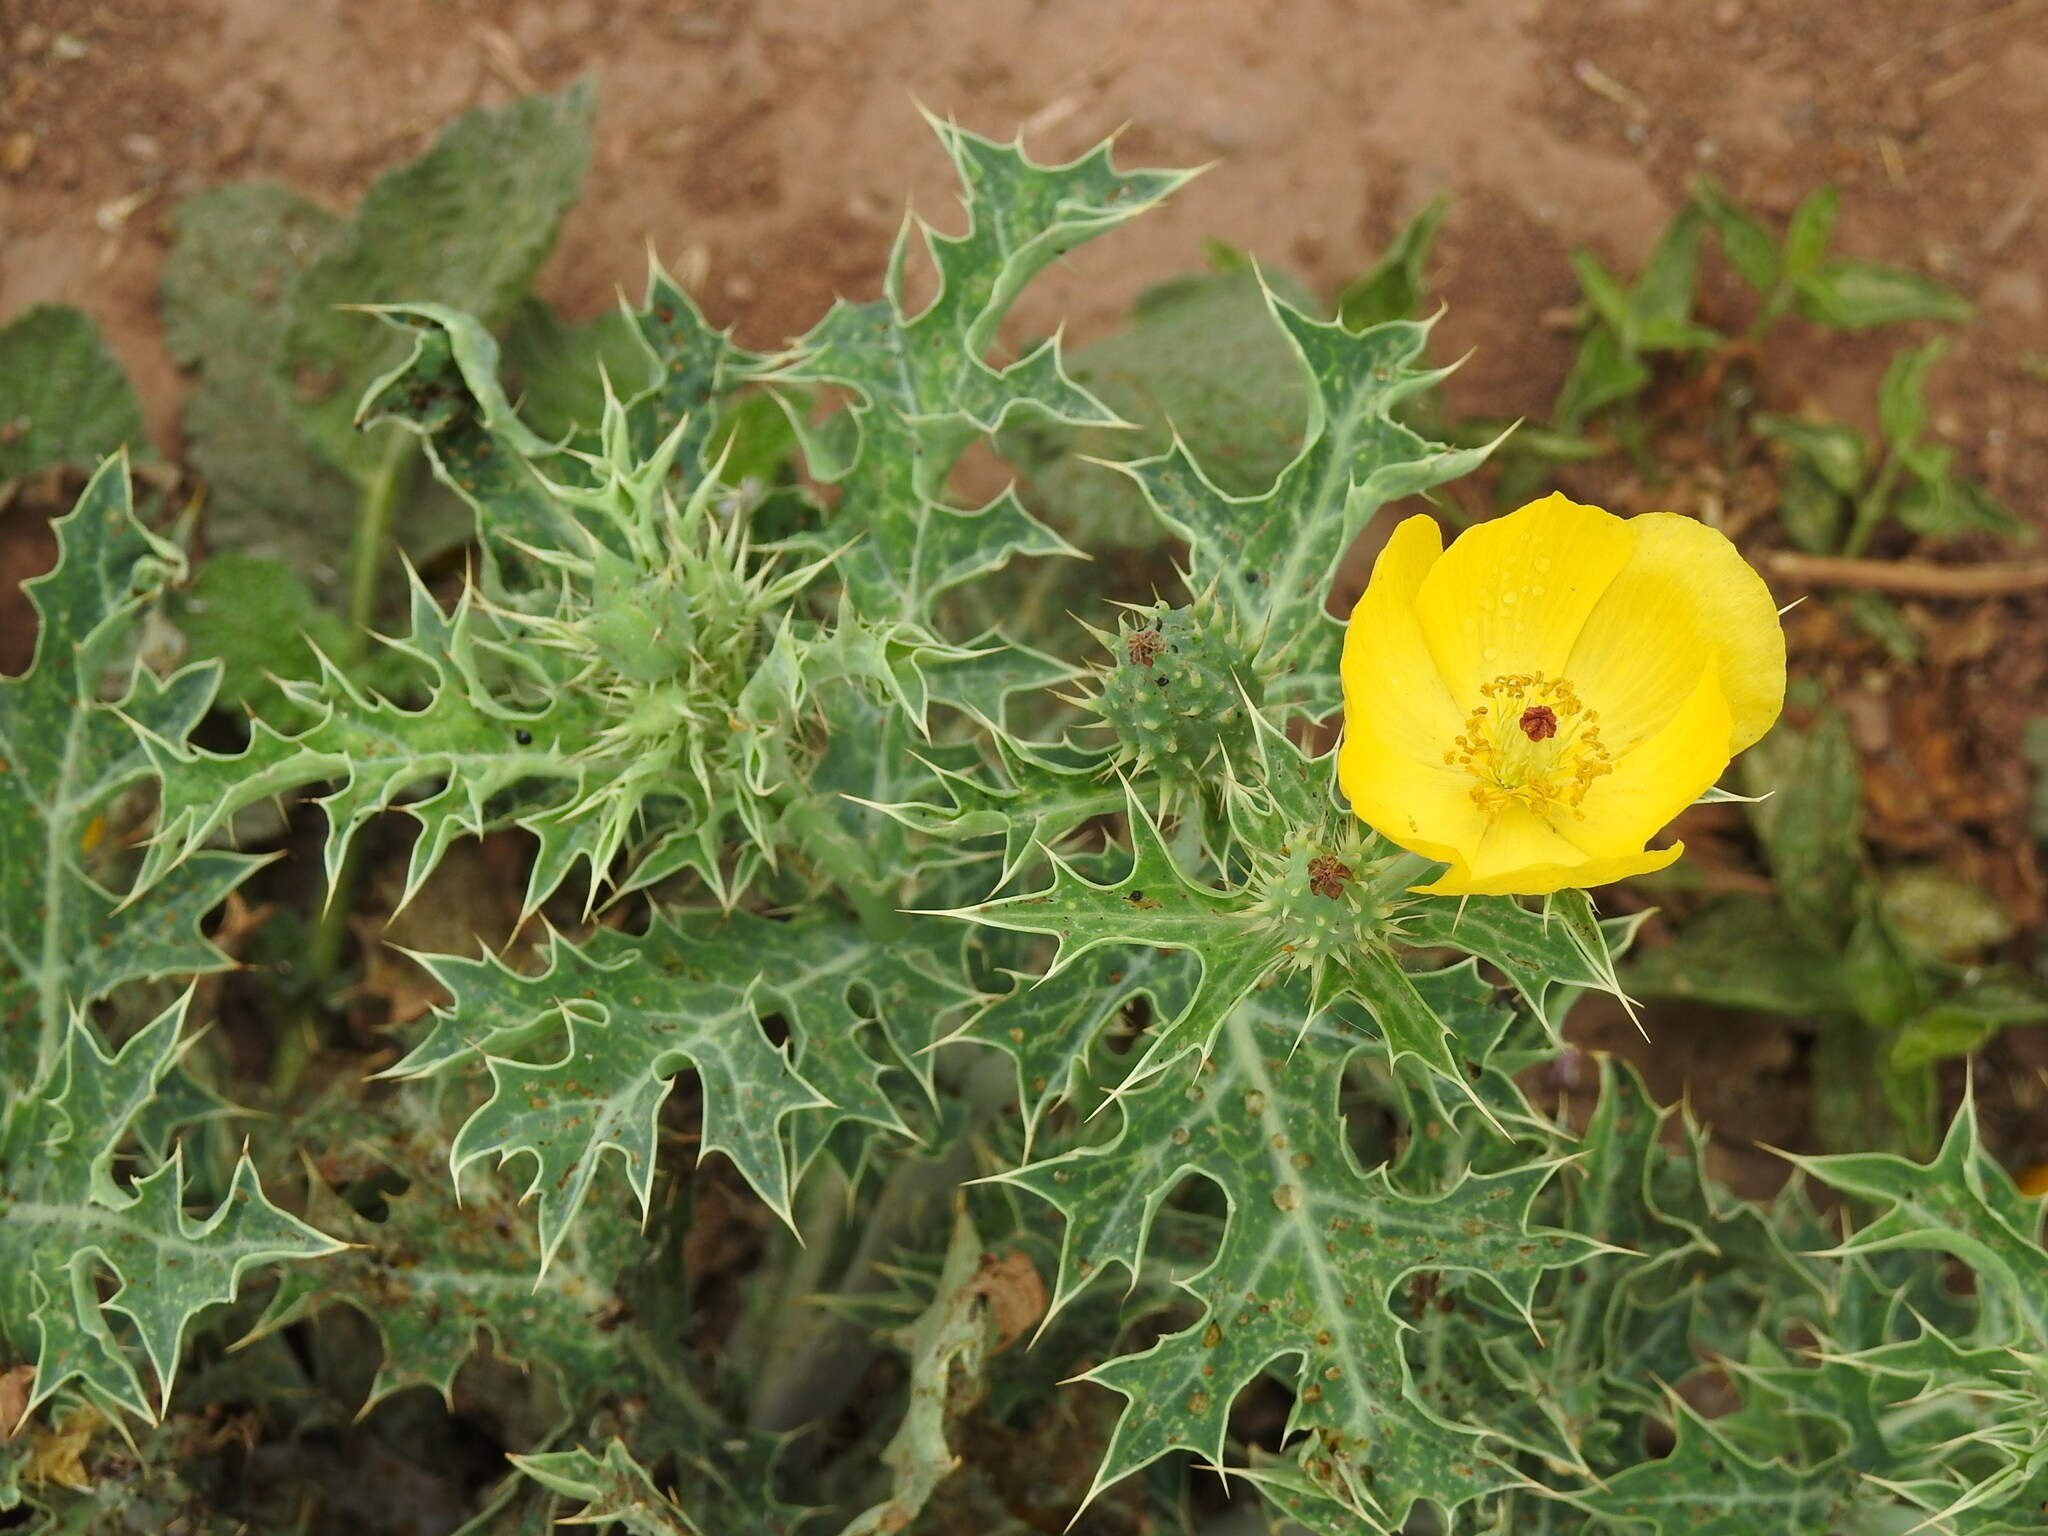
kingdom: Plantae
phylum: Tracheophyta
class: Magnoliopsida
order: Ranunculales
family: Papaveraceae
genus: Argemone
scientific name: Argemone subfusiformis
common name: American-poppy
